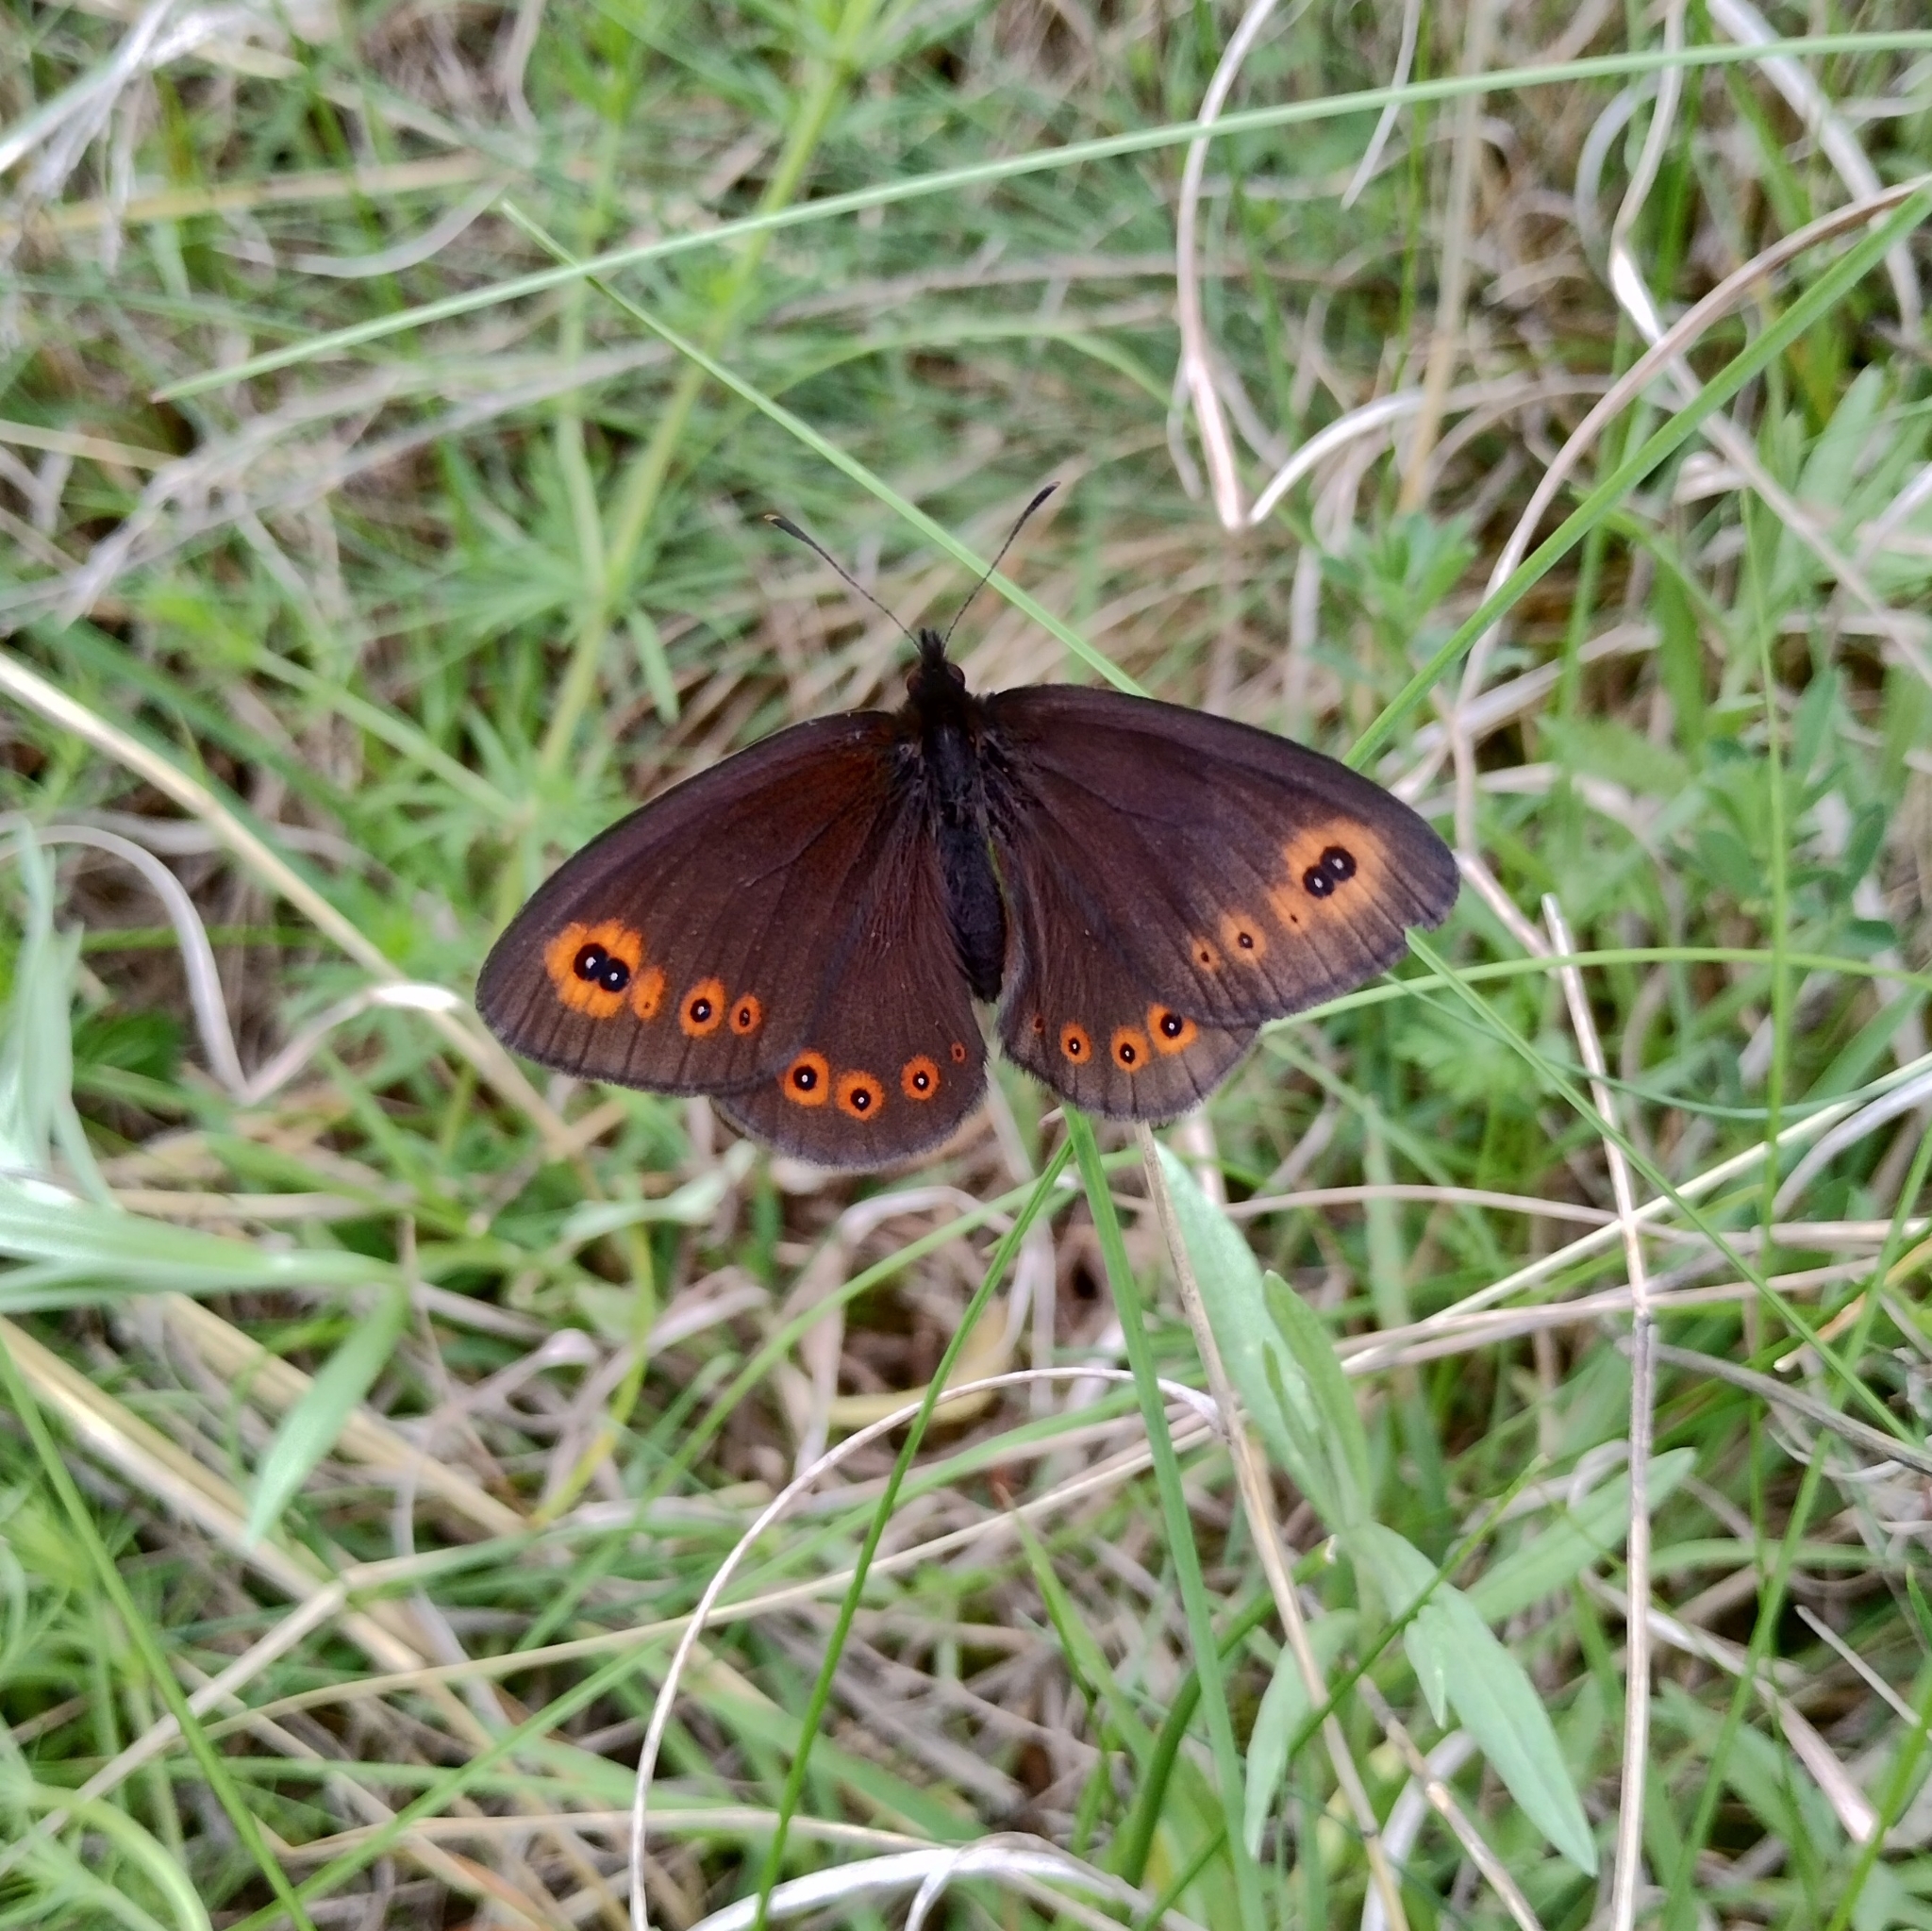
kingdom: Animalia
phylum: Arthropoda
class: Insecta
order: Lepidoptera
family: Nymphalidae
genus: Erebia
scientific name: Erebia medusa
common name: Woodland ringlet
